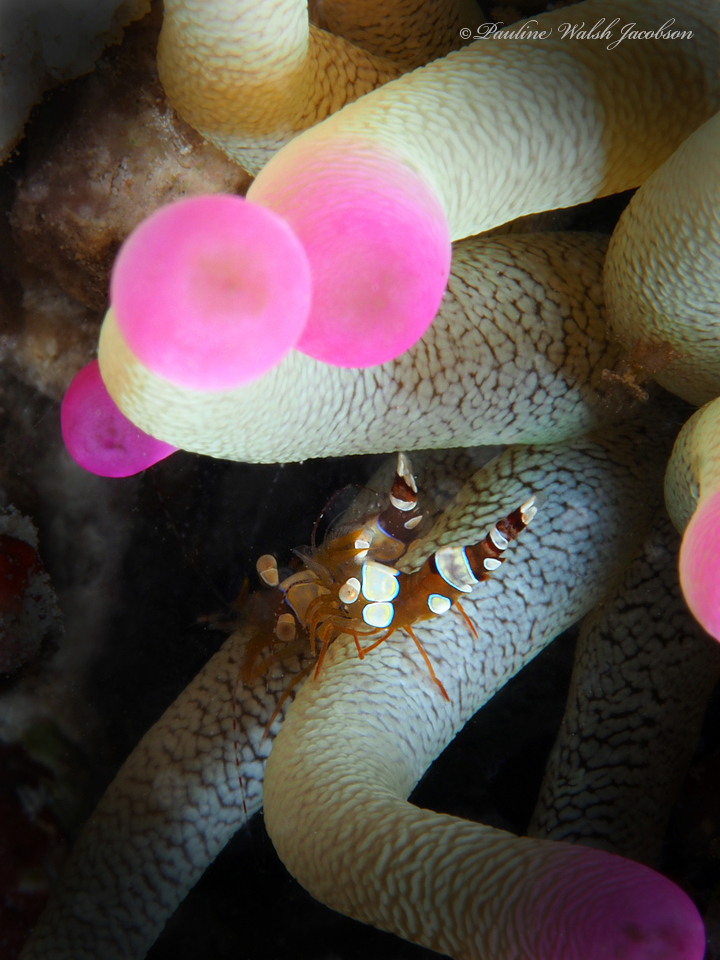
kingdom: Animalia
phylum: Arthropoda
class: Malacostraca
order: Decapoda
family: Thoridae
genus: Thor
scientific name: Thor dicaprio
